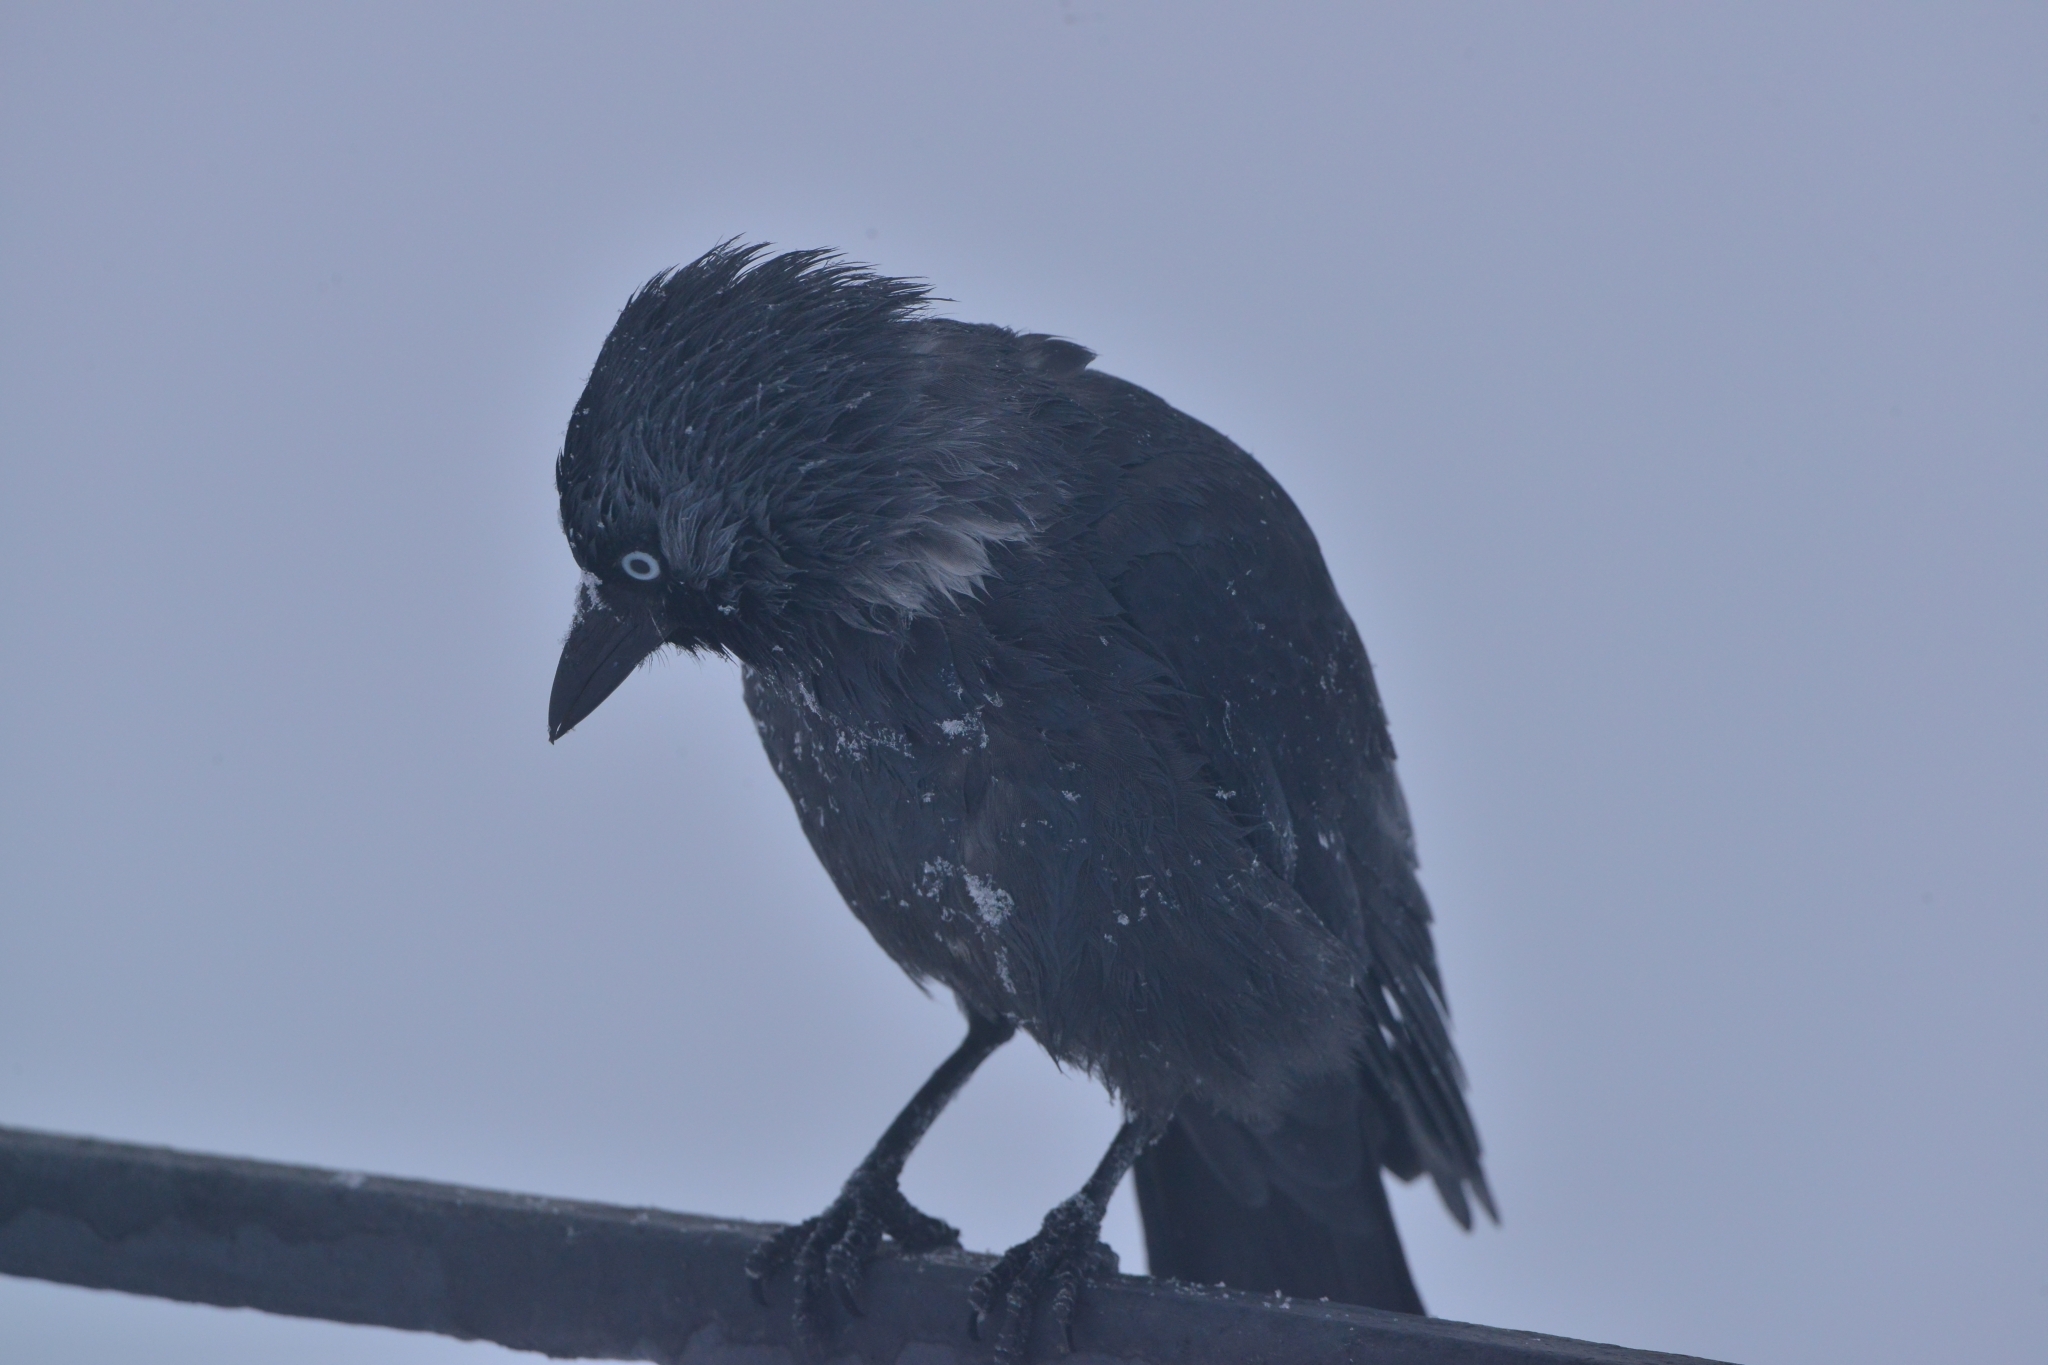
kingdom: Animalia
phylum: Chordata
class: Aves
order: Passeriformes
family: Corvidae
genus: Coloeus
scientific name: Coloeus monedula
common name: Western jackdaw
